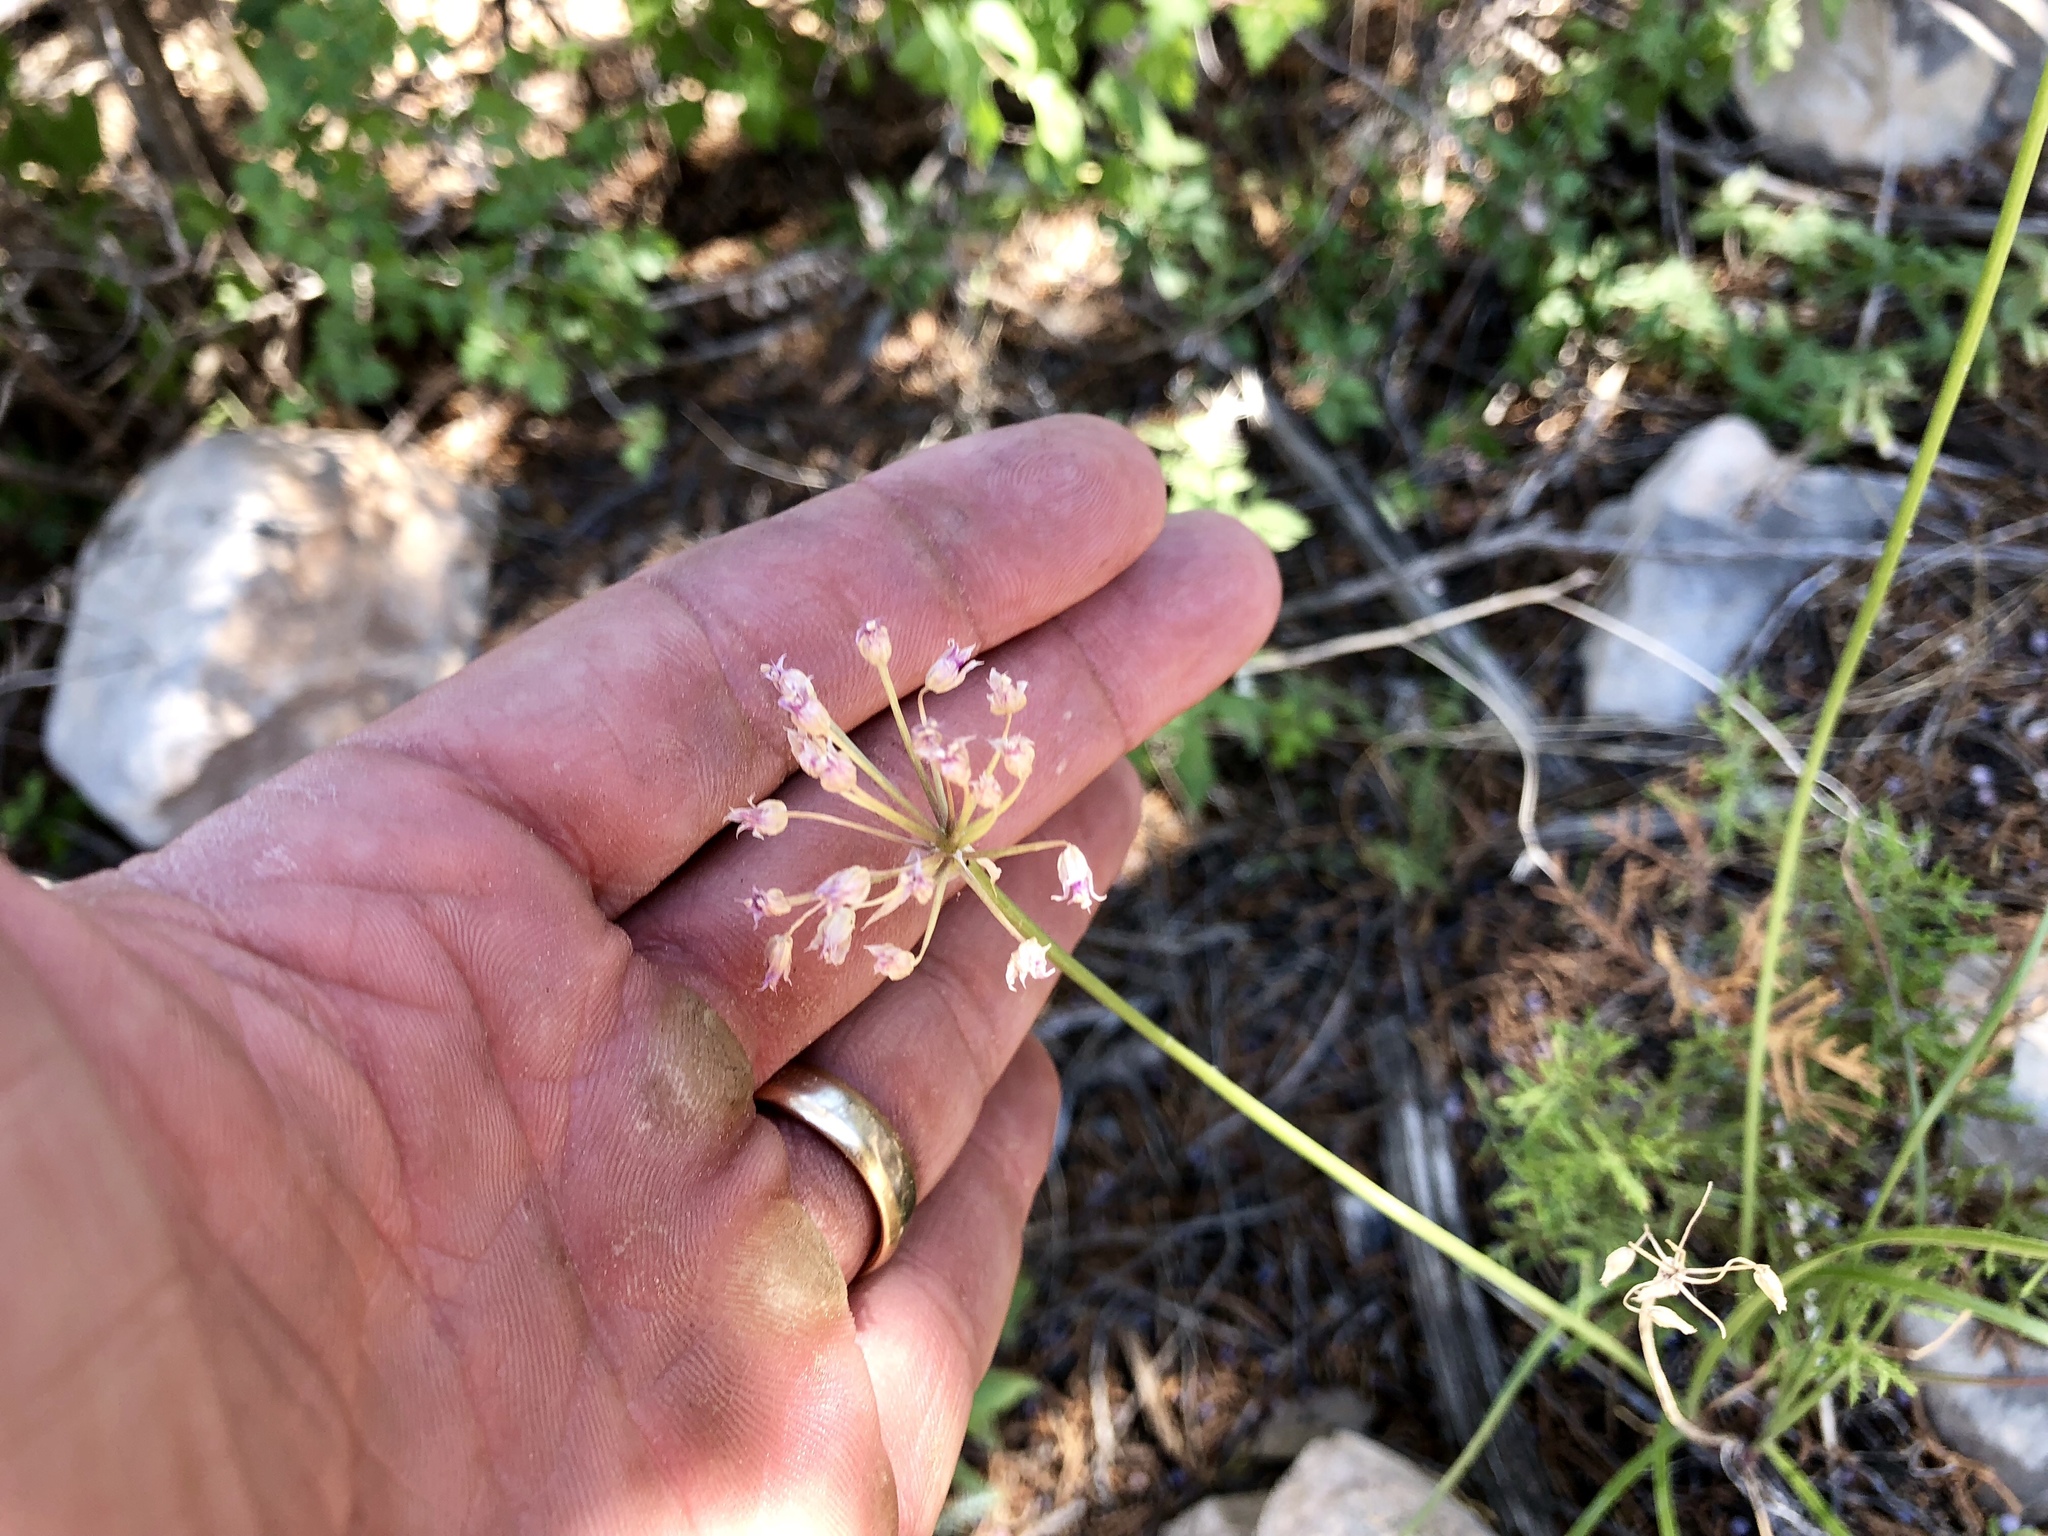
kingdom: Plantae
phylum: Tracheophyta
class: Liliopsida
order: Asparagales
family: Amaryllidaceae
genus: Allium
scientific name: Allium geyeri
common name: Geyer's onion
